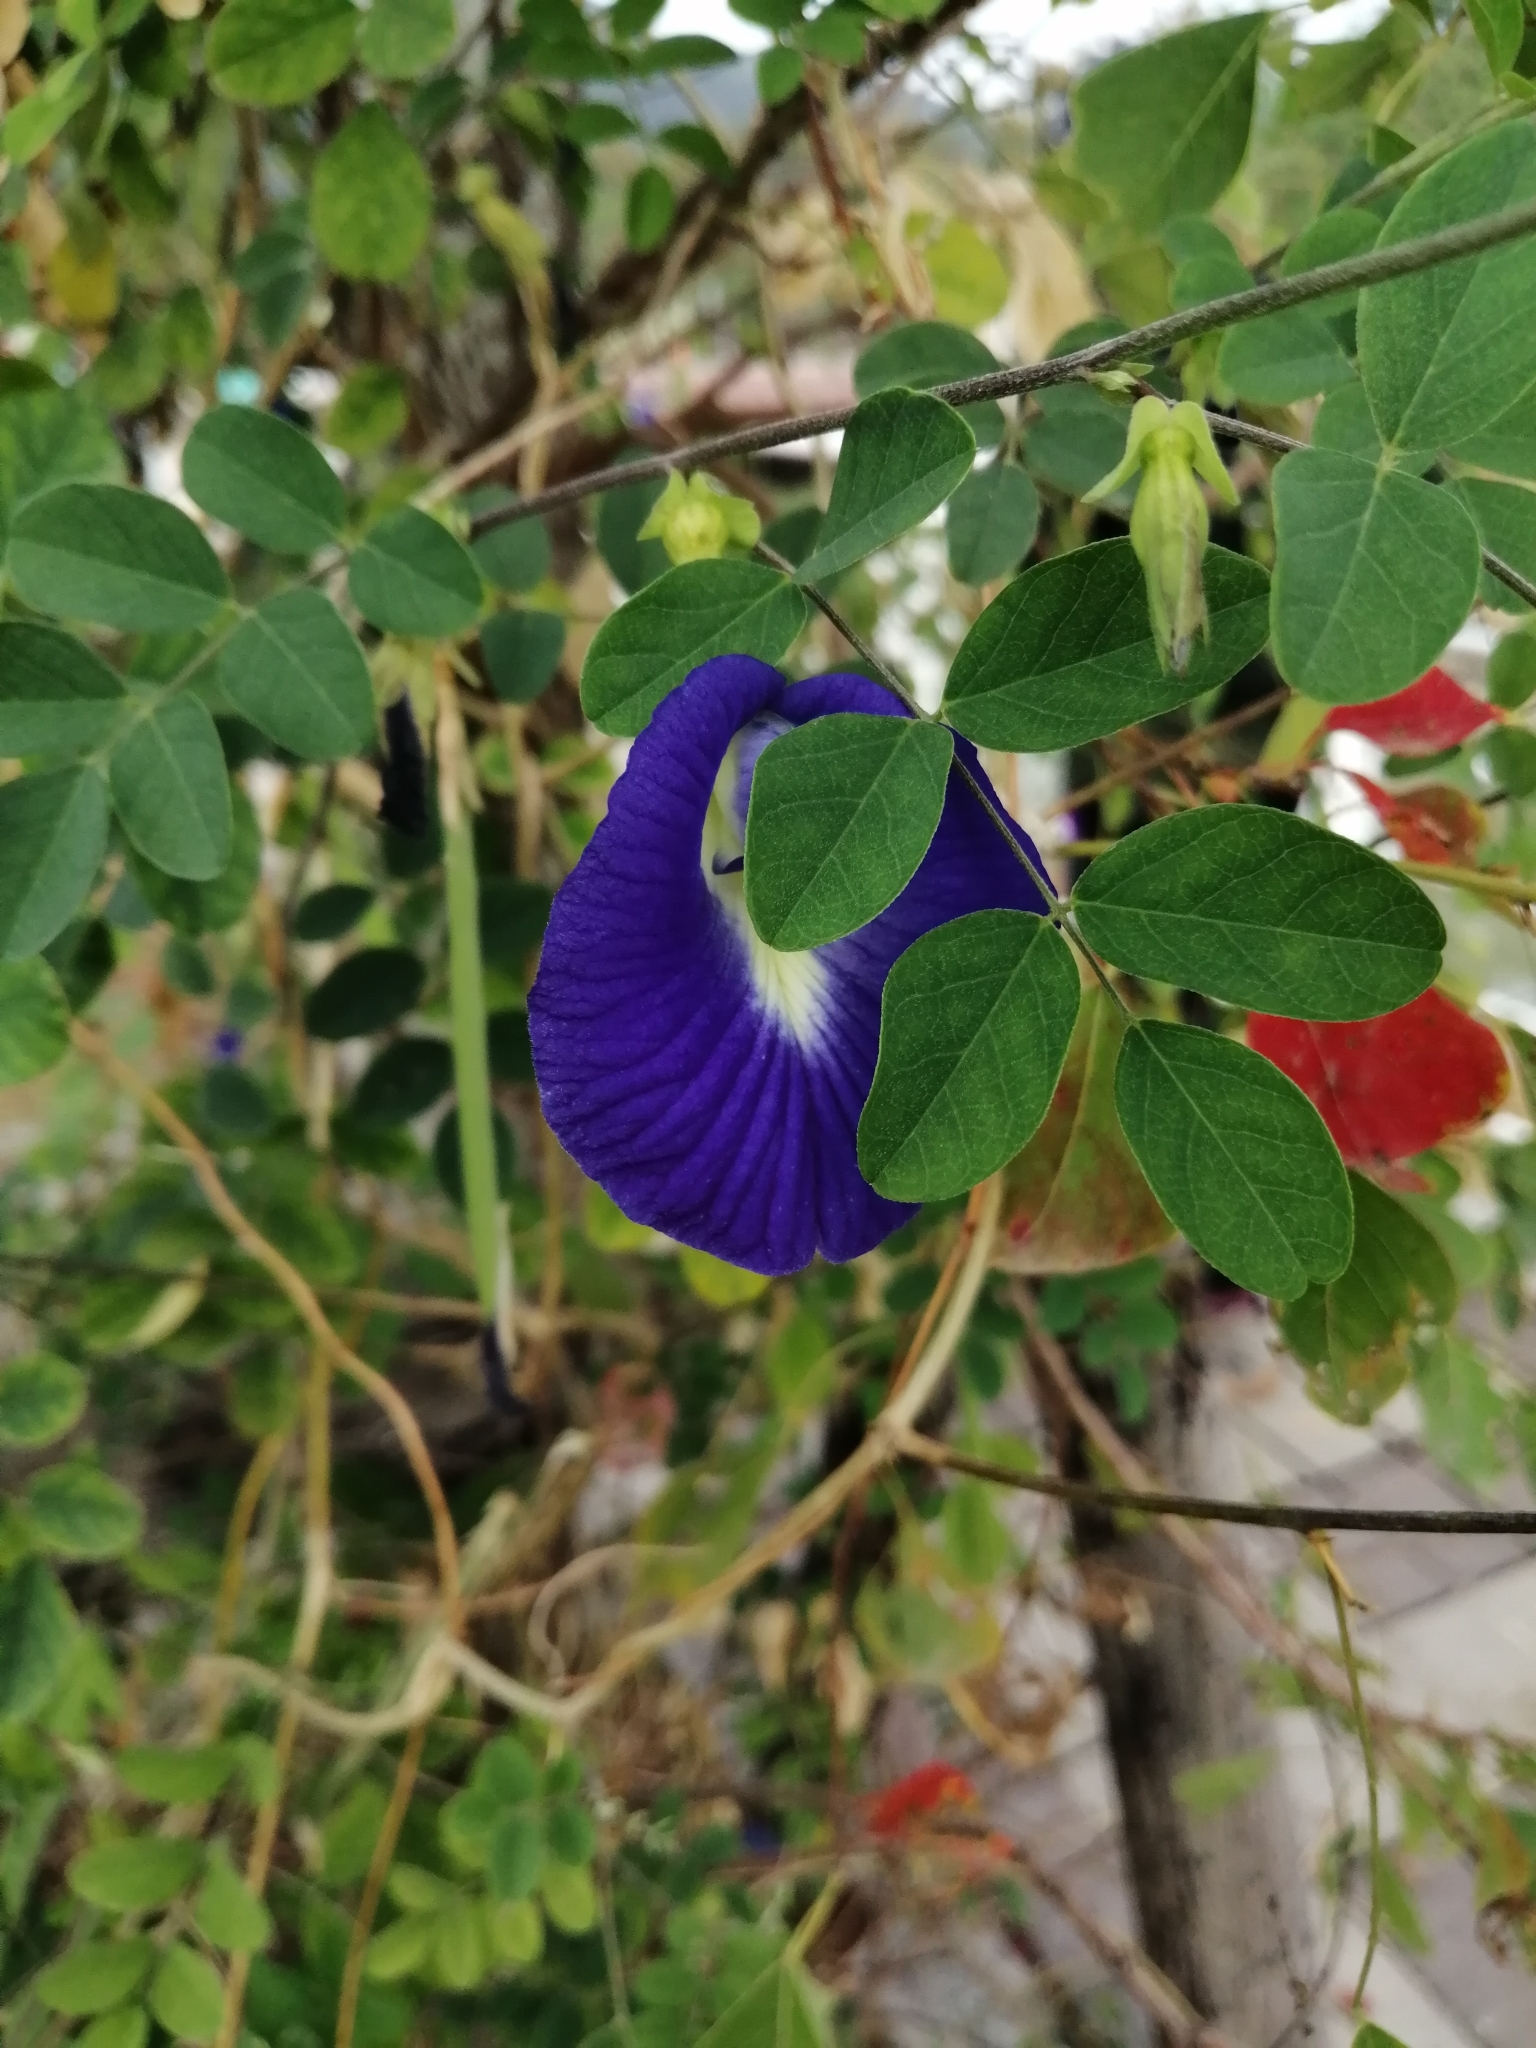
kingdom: Plantae
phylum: Tracheophyta
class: Magnoliopsida
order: Fabales
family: Fabaceae
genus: Clitoria
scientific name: Clitoria ternatea
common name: Asian pigeonwings
